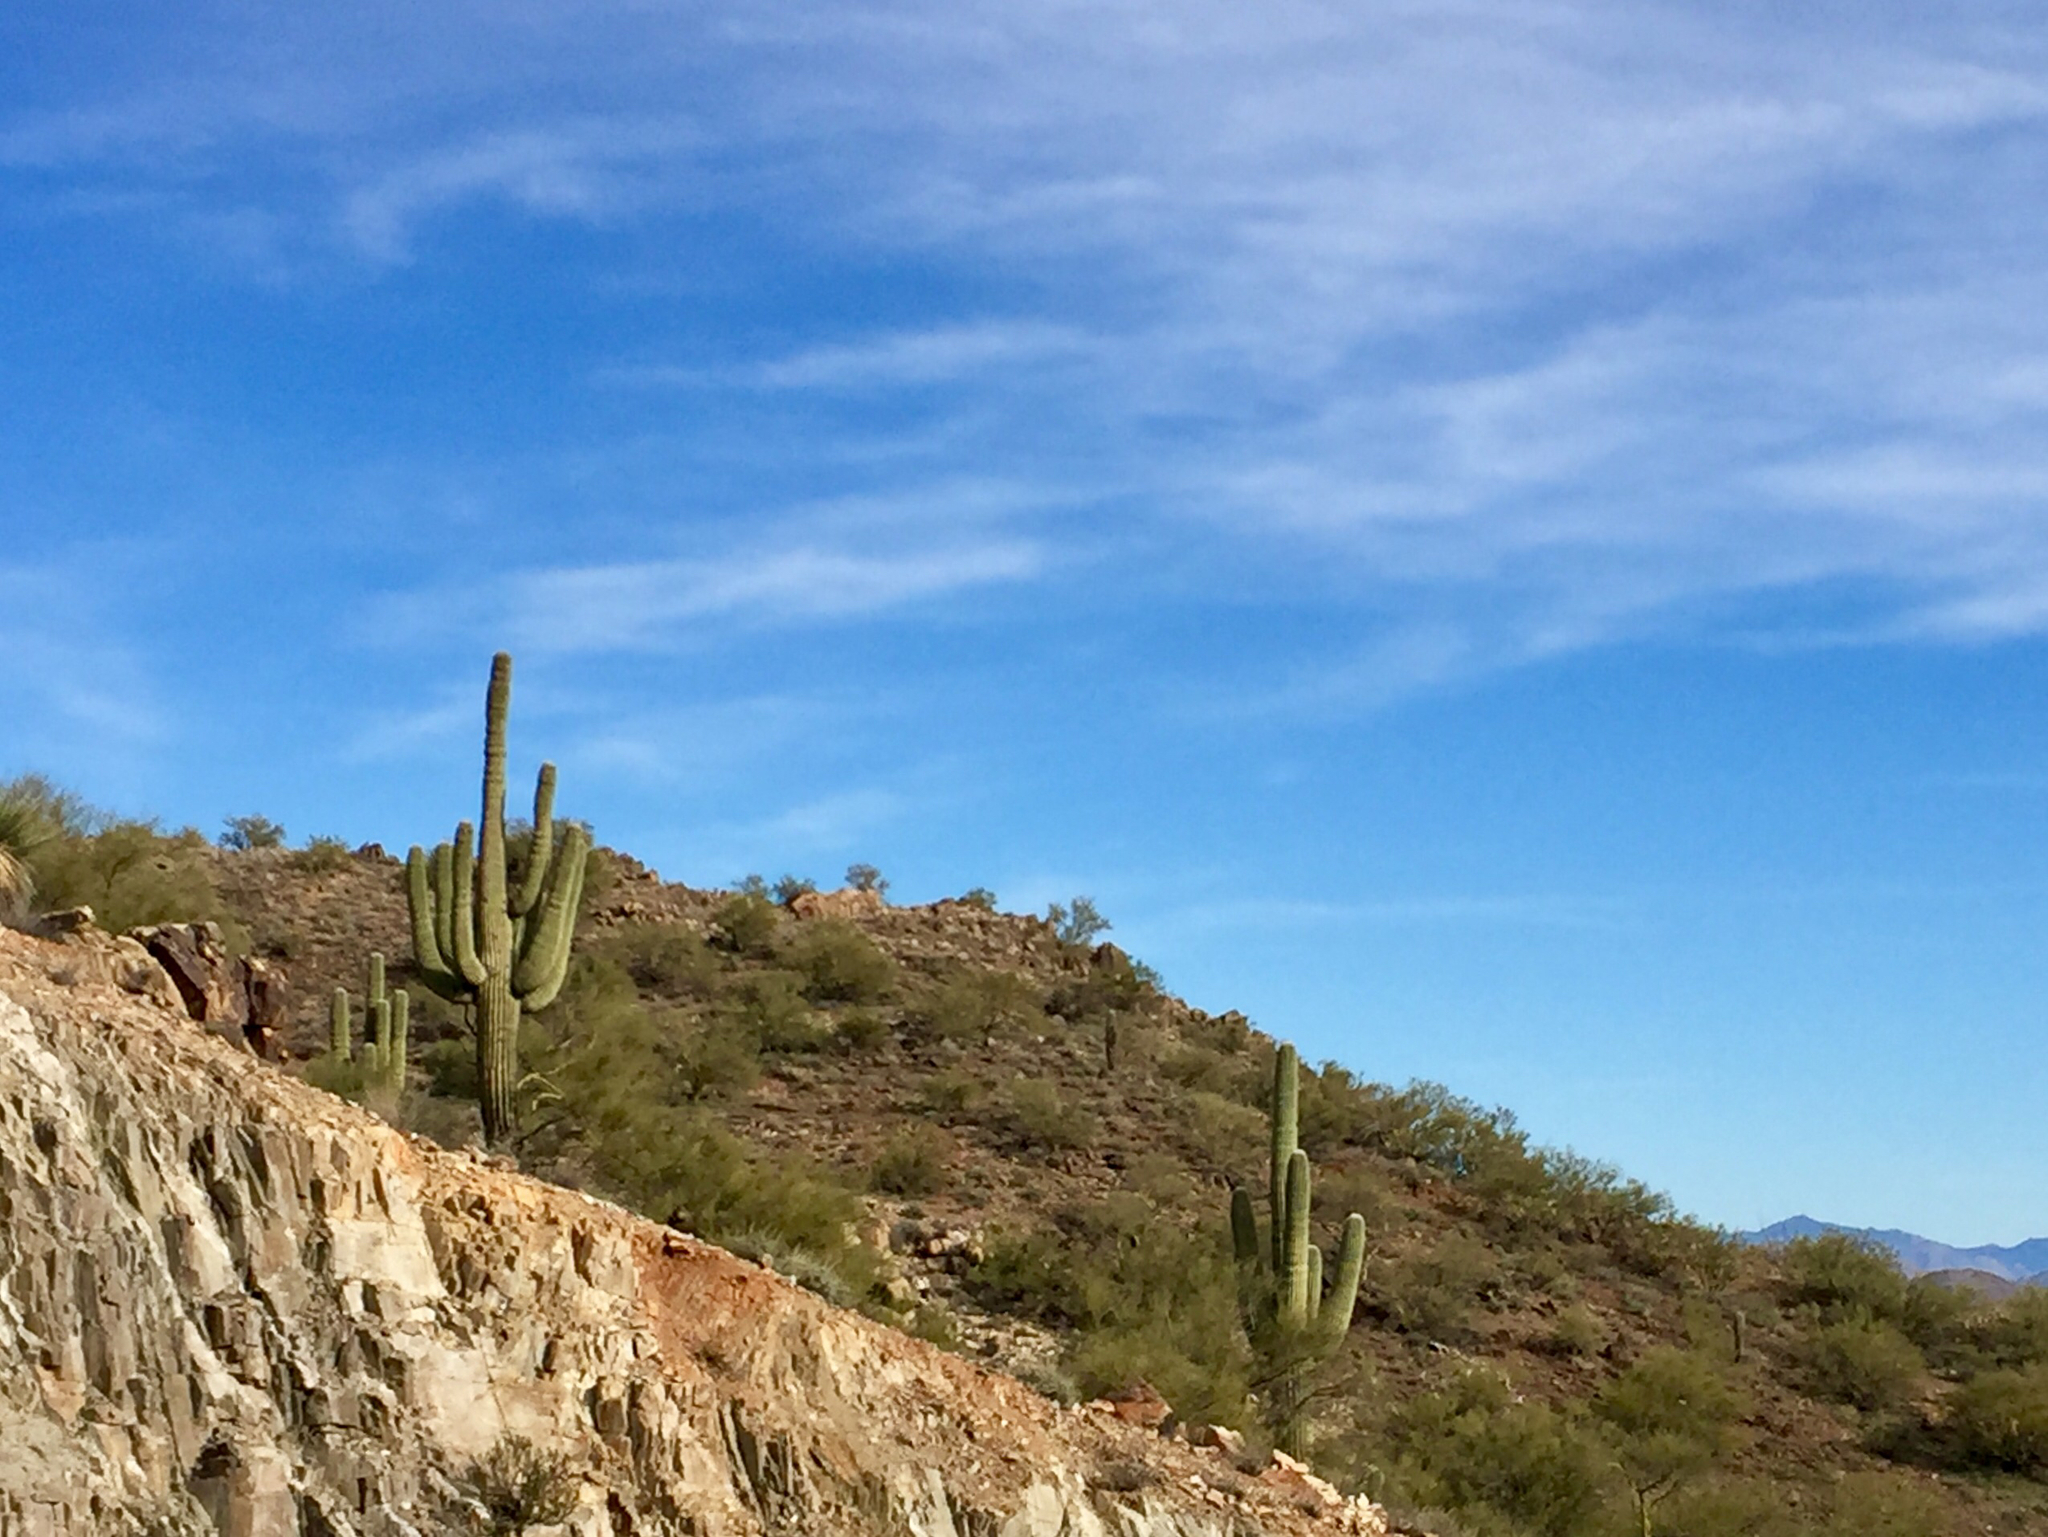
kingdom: Plantae
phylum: Tracheophyta
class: Magnoliopsida
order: Caryophyllales
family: Cactaceae
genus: Carnegiea
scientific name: Carnegiea gigantea
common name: Saguaro
